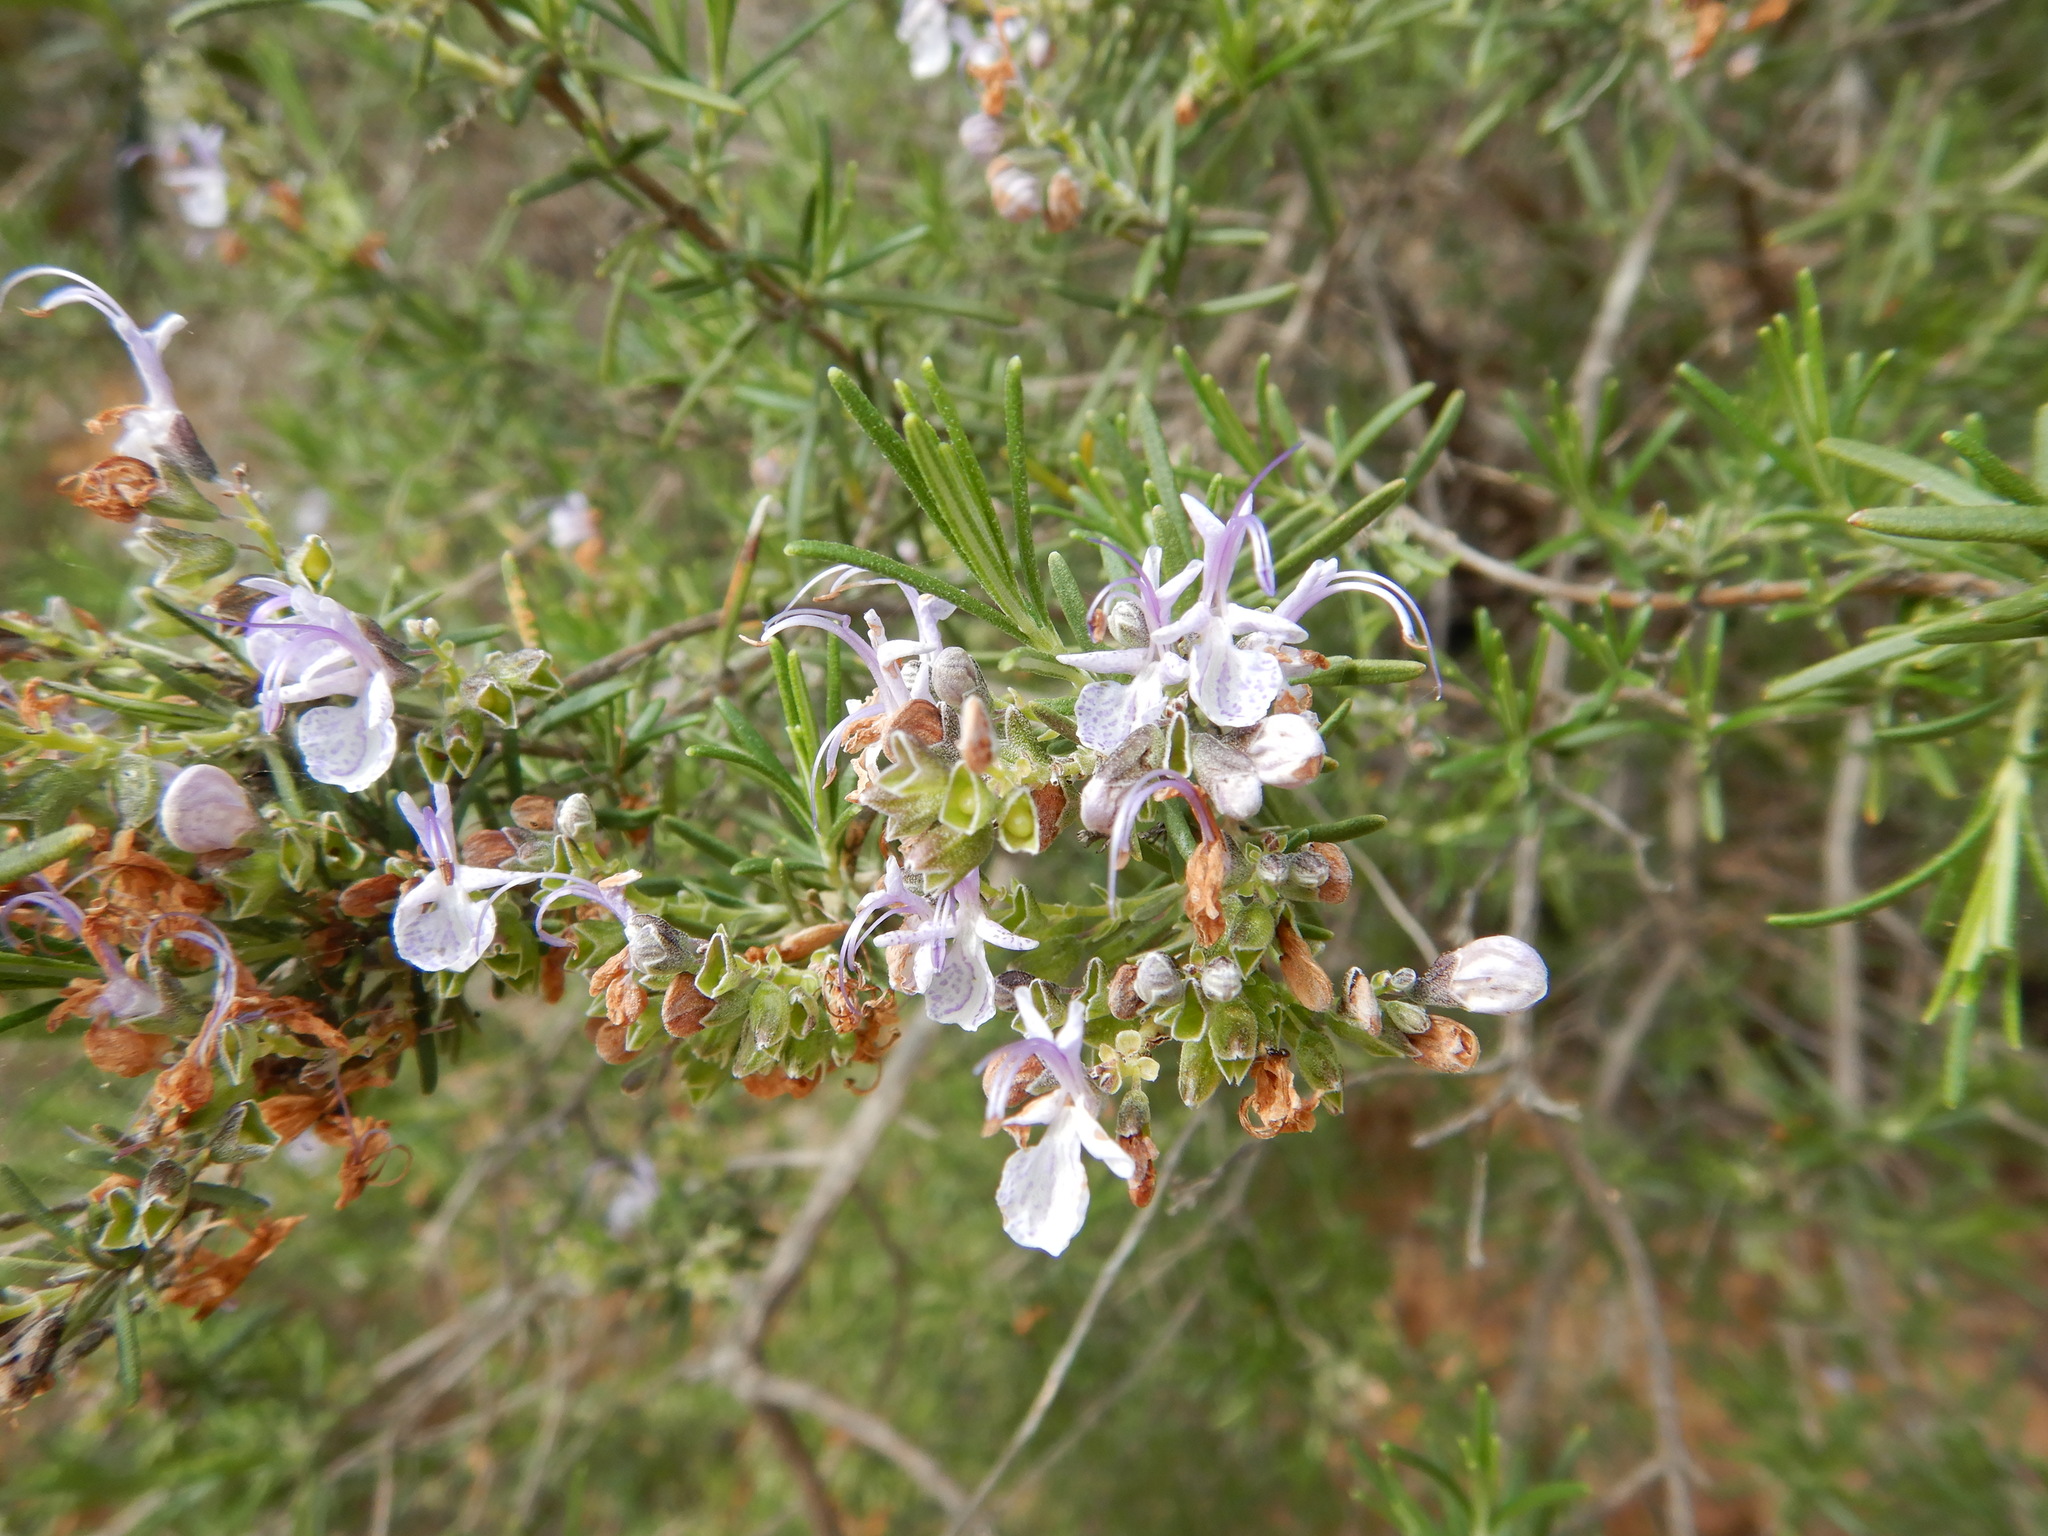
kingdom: Plantae
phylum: Tracheophyta
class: Magnoliopsida
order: Lamiales
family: Lamiaceae
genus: Salvia
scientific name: Salvia rosmarinus
